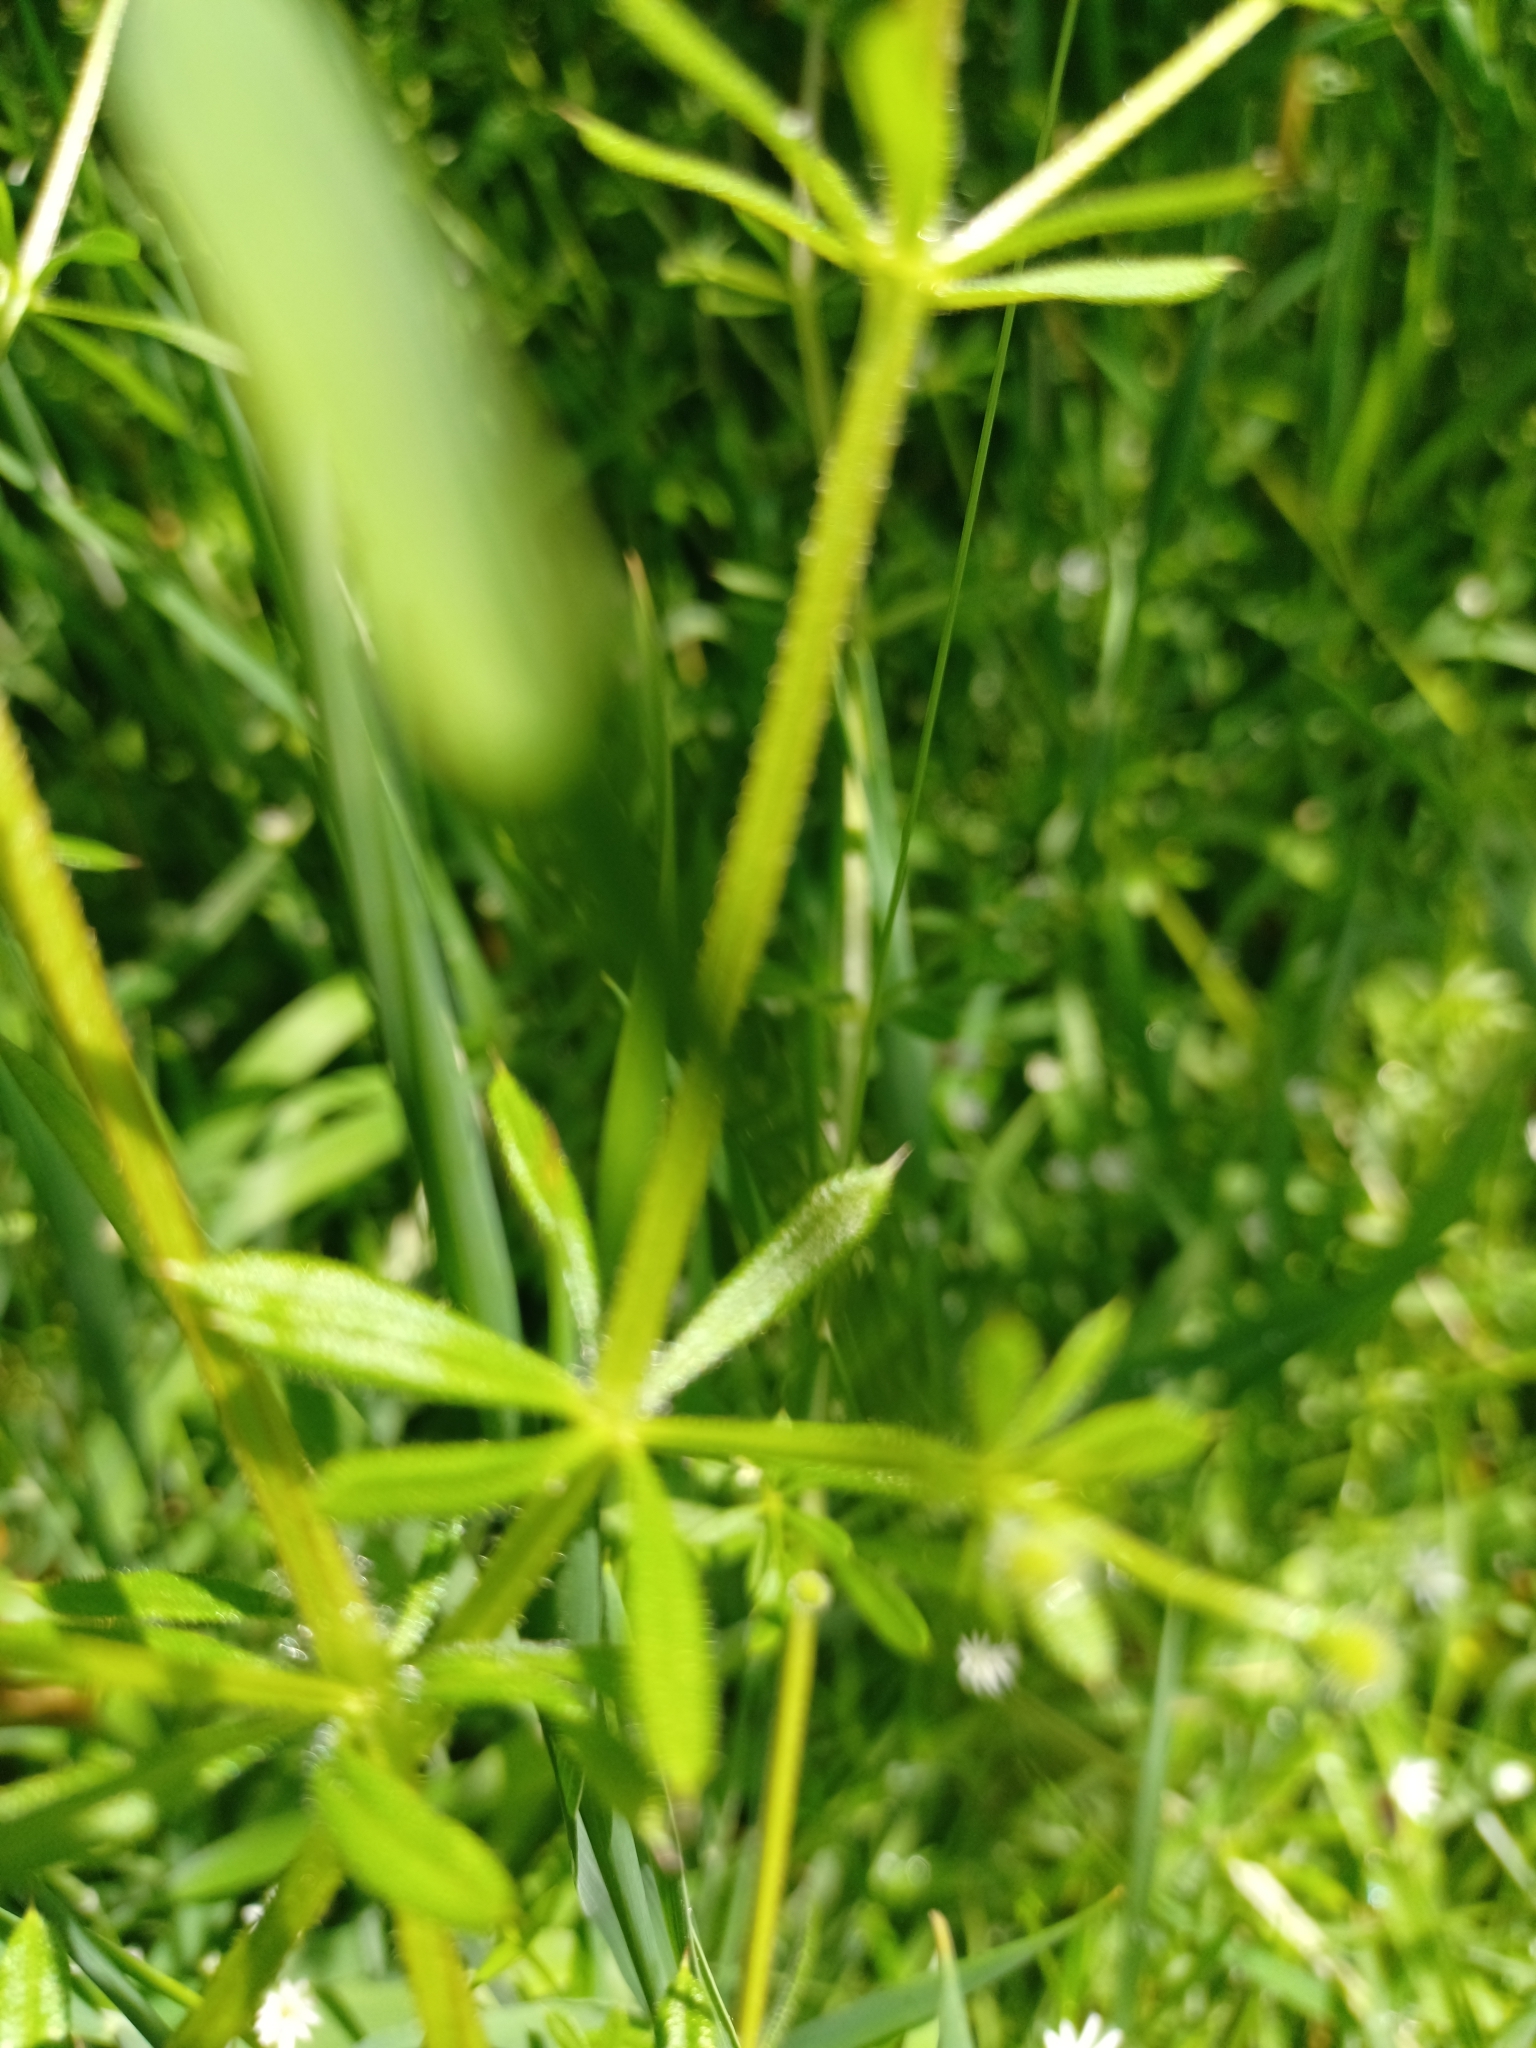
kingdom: Plantae
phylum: Tracheophyta
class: Magnoliopsida
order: Gentianales
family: Rubiaceae
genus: Galium
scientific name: Galium aparine
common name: Cleavers
